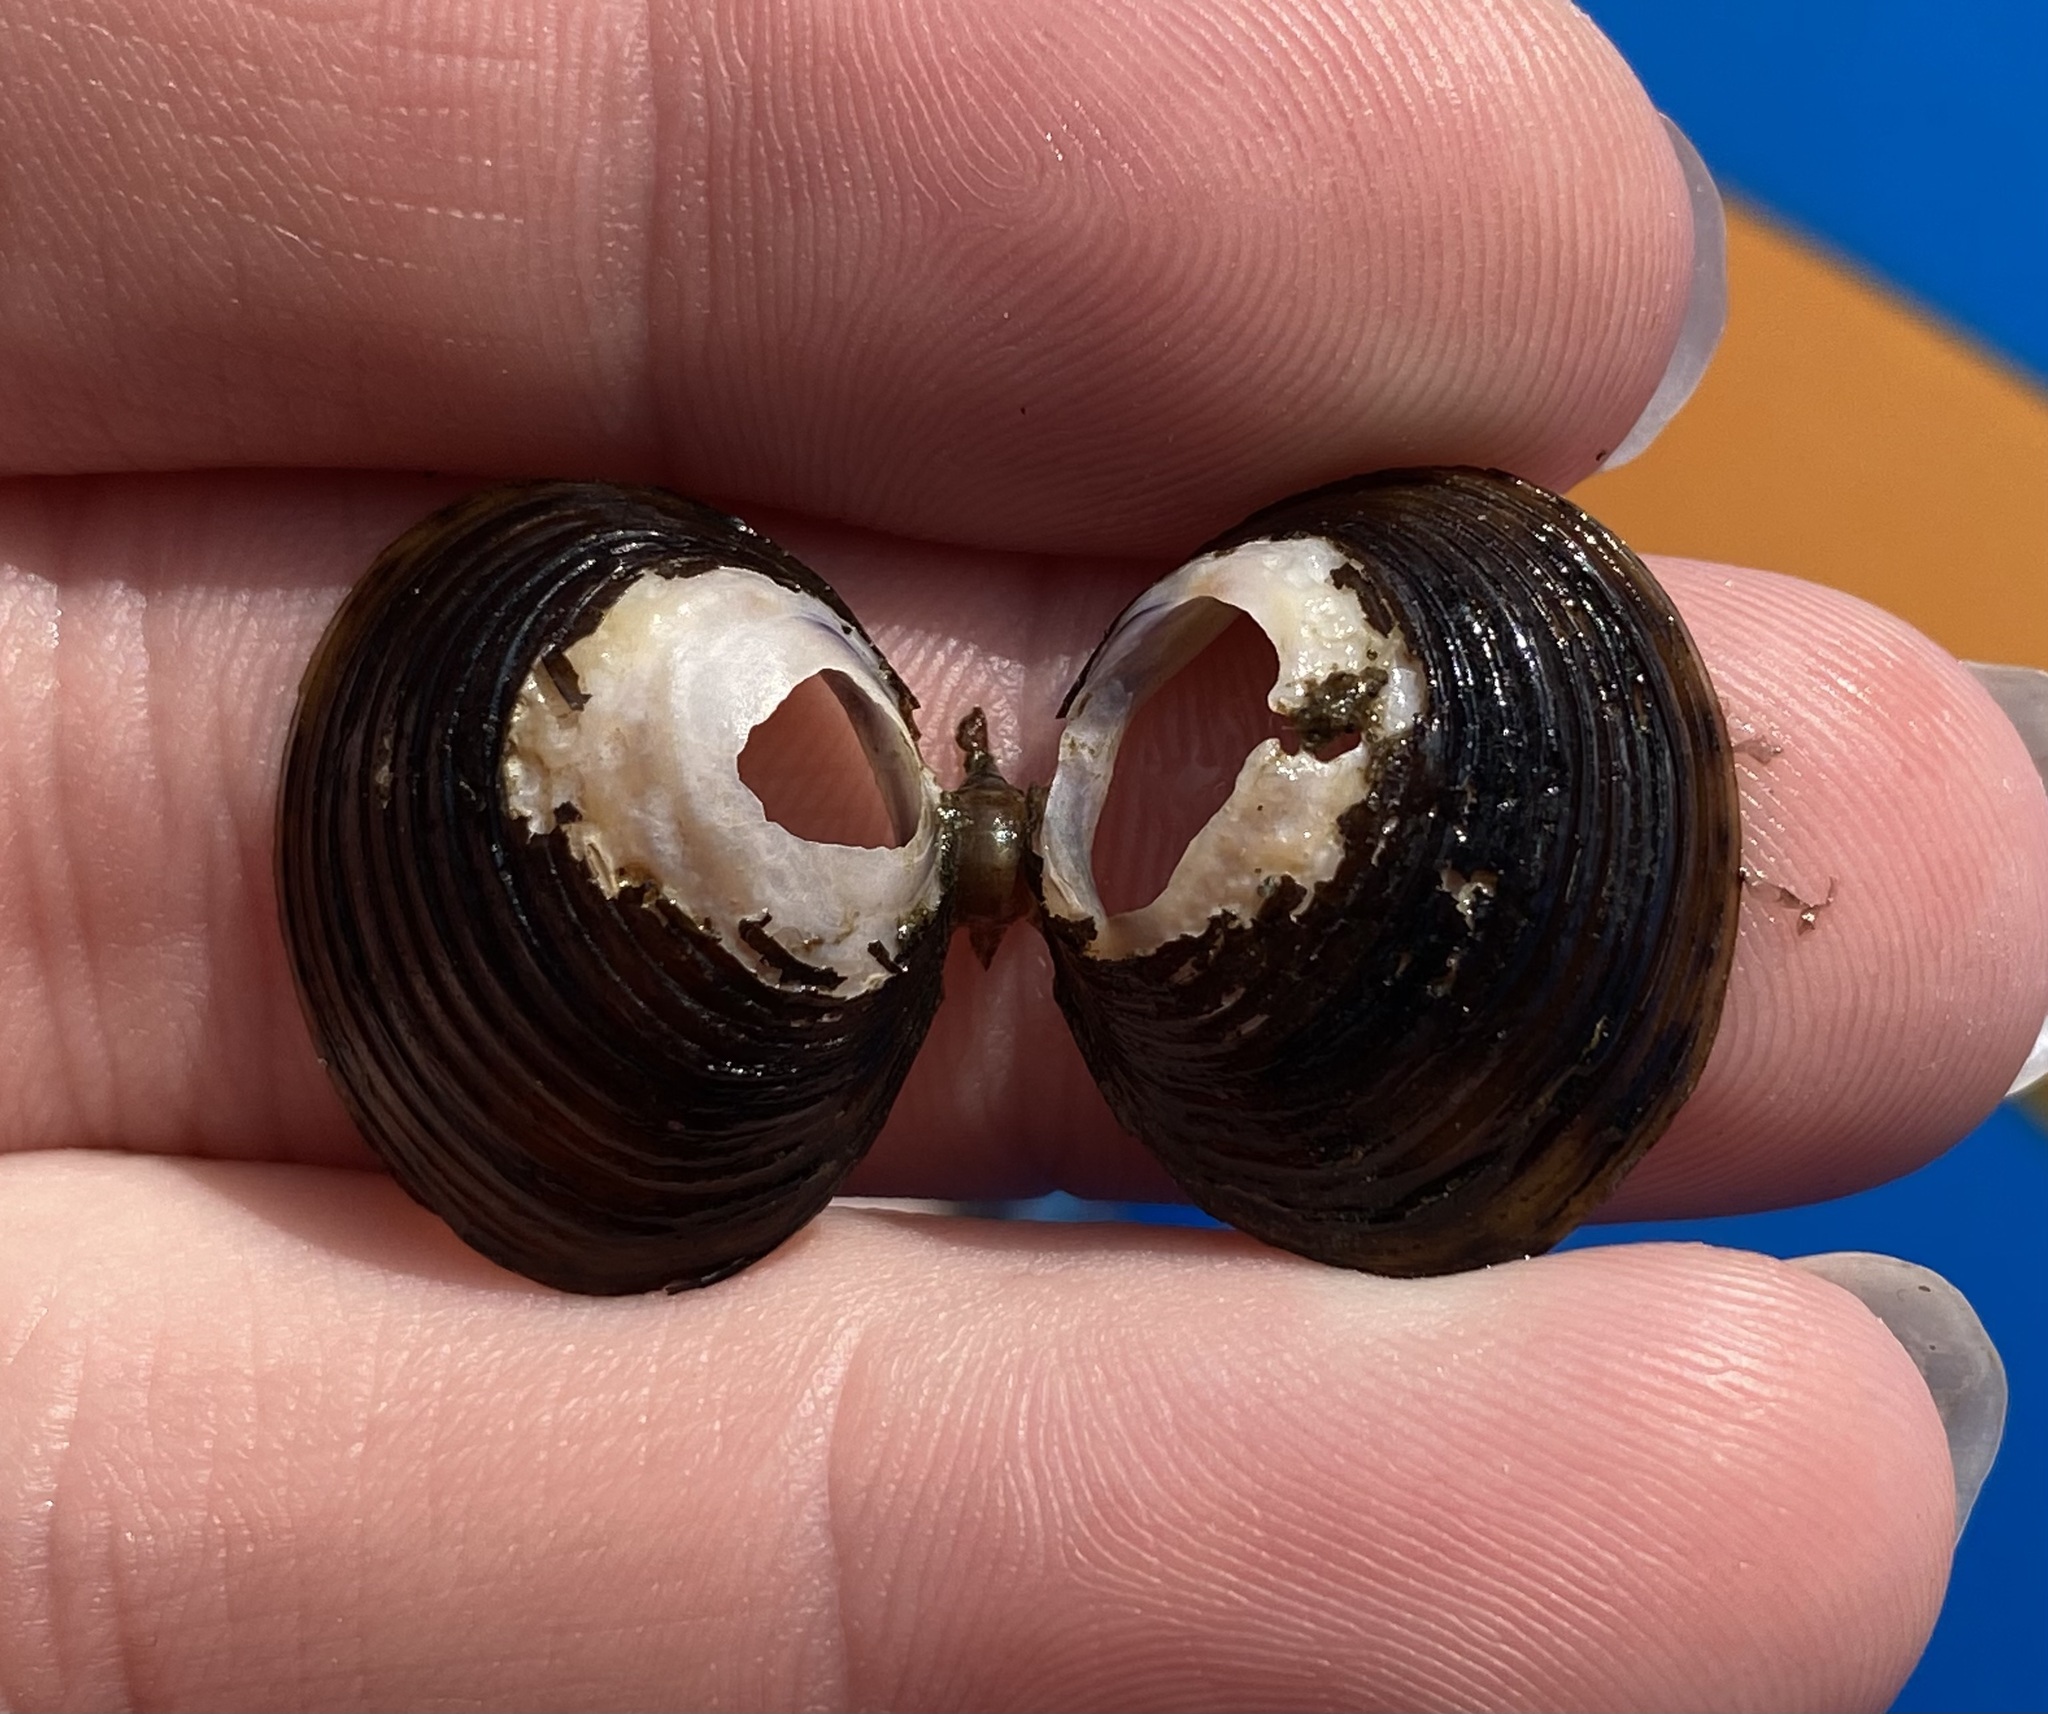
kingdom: Animalia
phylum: Mollusca
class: Bivalvia
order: Venerida
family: Cyrenidae
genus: Corbicula
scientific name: Corbicula fluminea
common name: Asian clam
